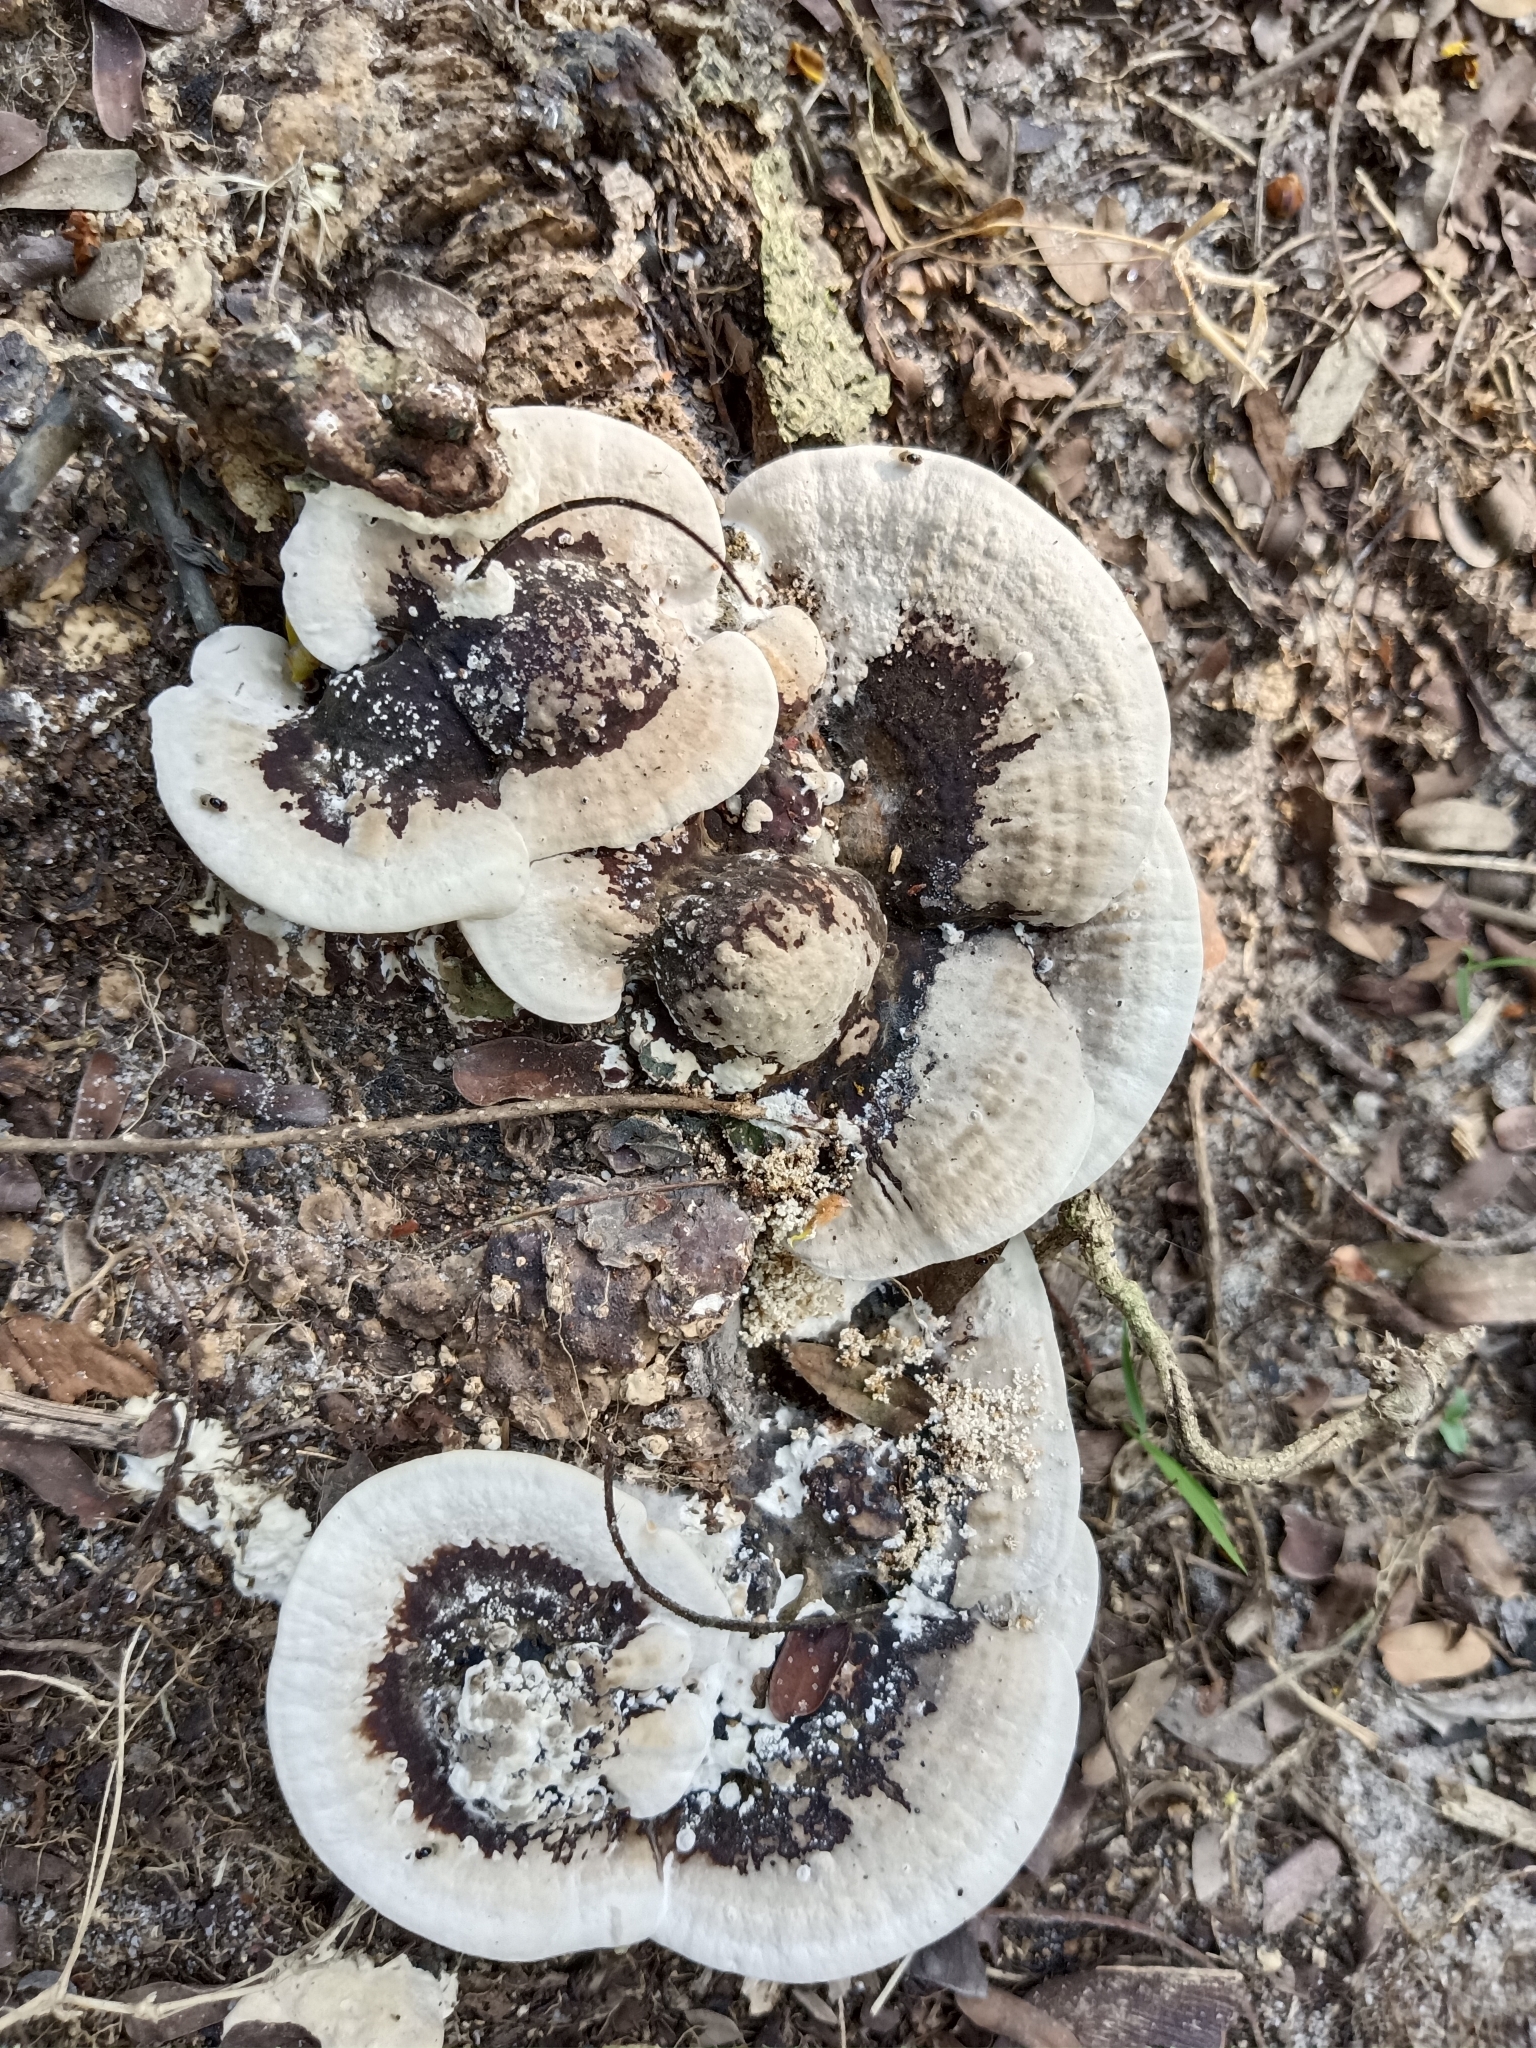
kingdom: Fungi
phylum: Basidiomycota
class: Agaricomycetes
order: Polyporales
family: Polyporaceae
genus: Earliella
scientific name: Earliella scabrosa
